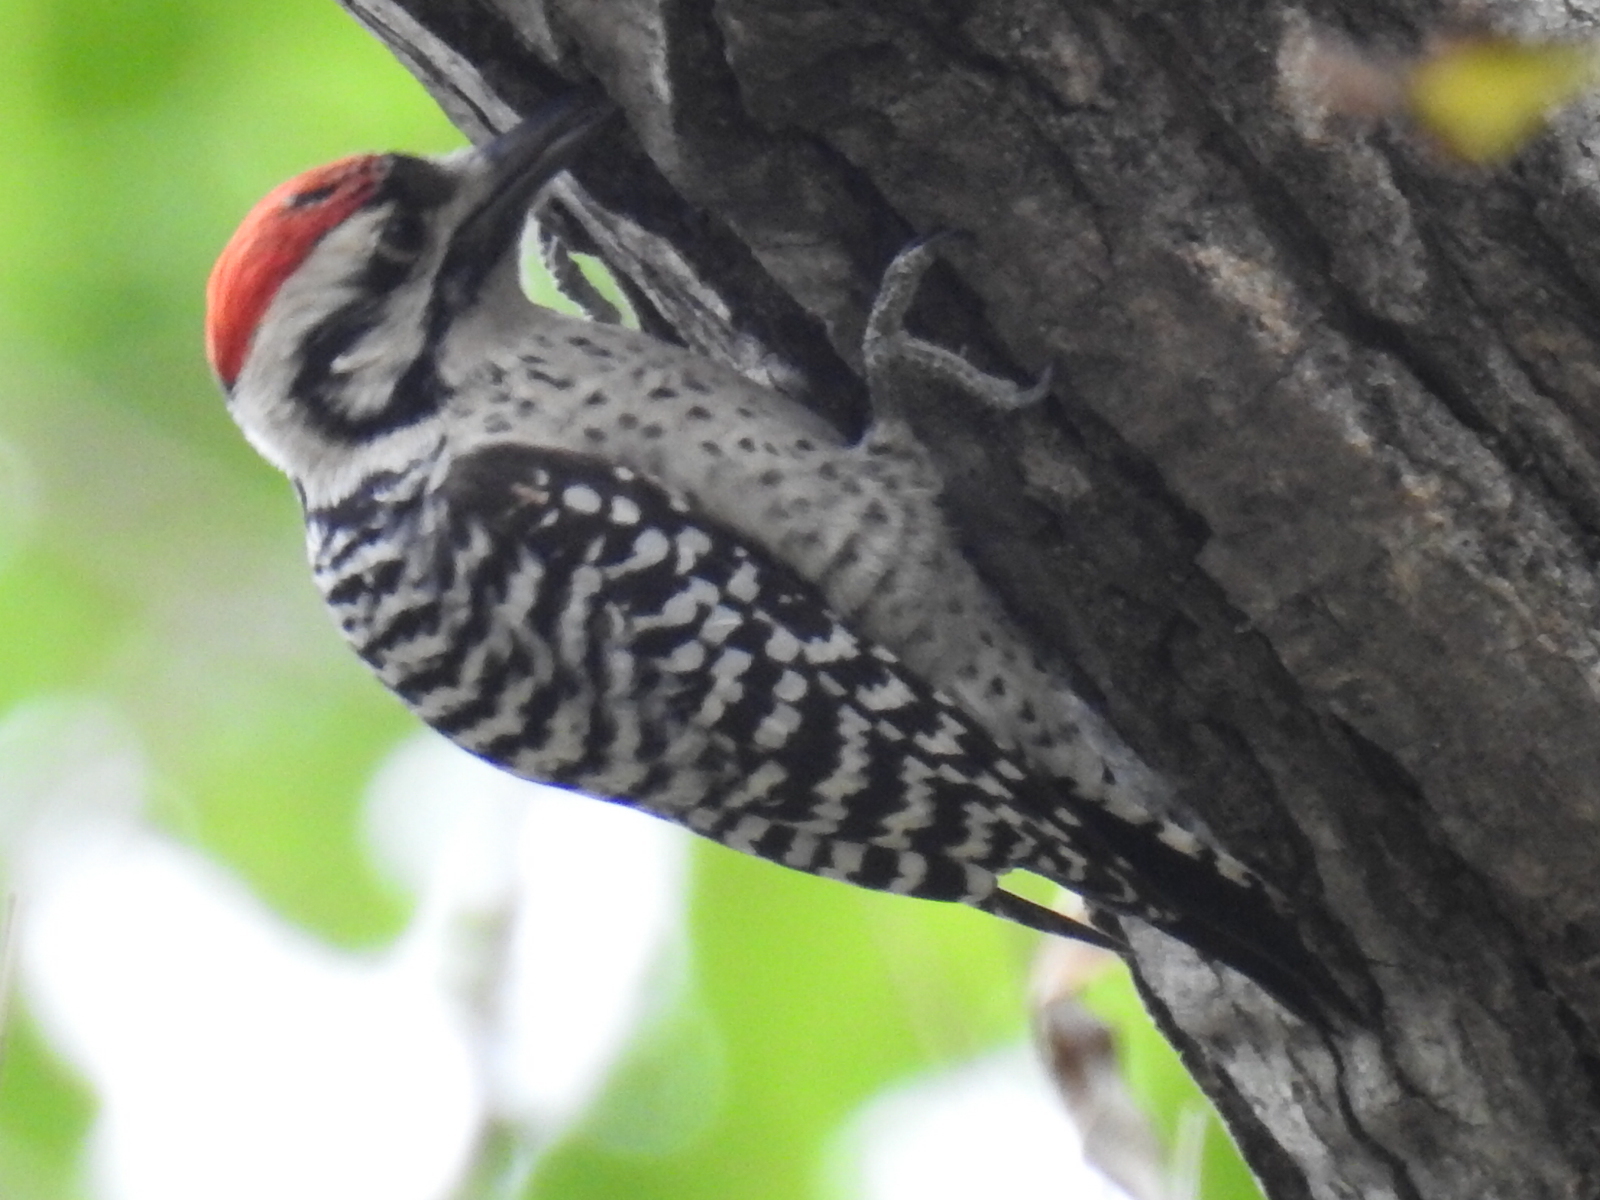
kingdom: Animalia
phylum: Chordata
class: Aves
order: Piciformes
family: Picidae
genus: Dryobates
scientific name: Dryobates scalaris
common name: Ladder-backed woodpecker
